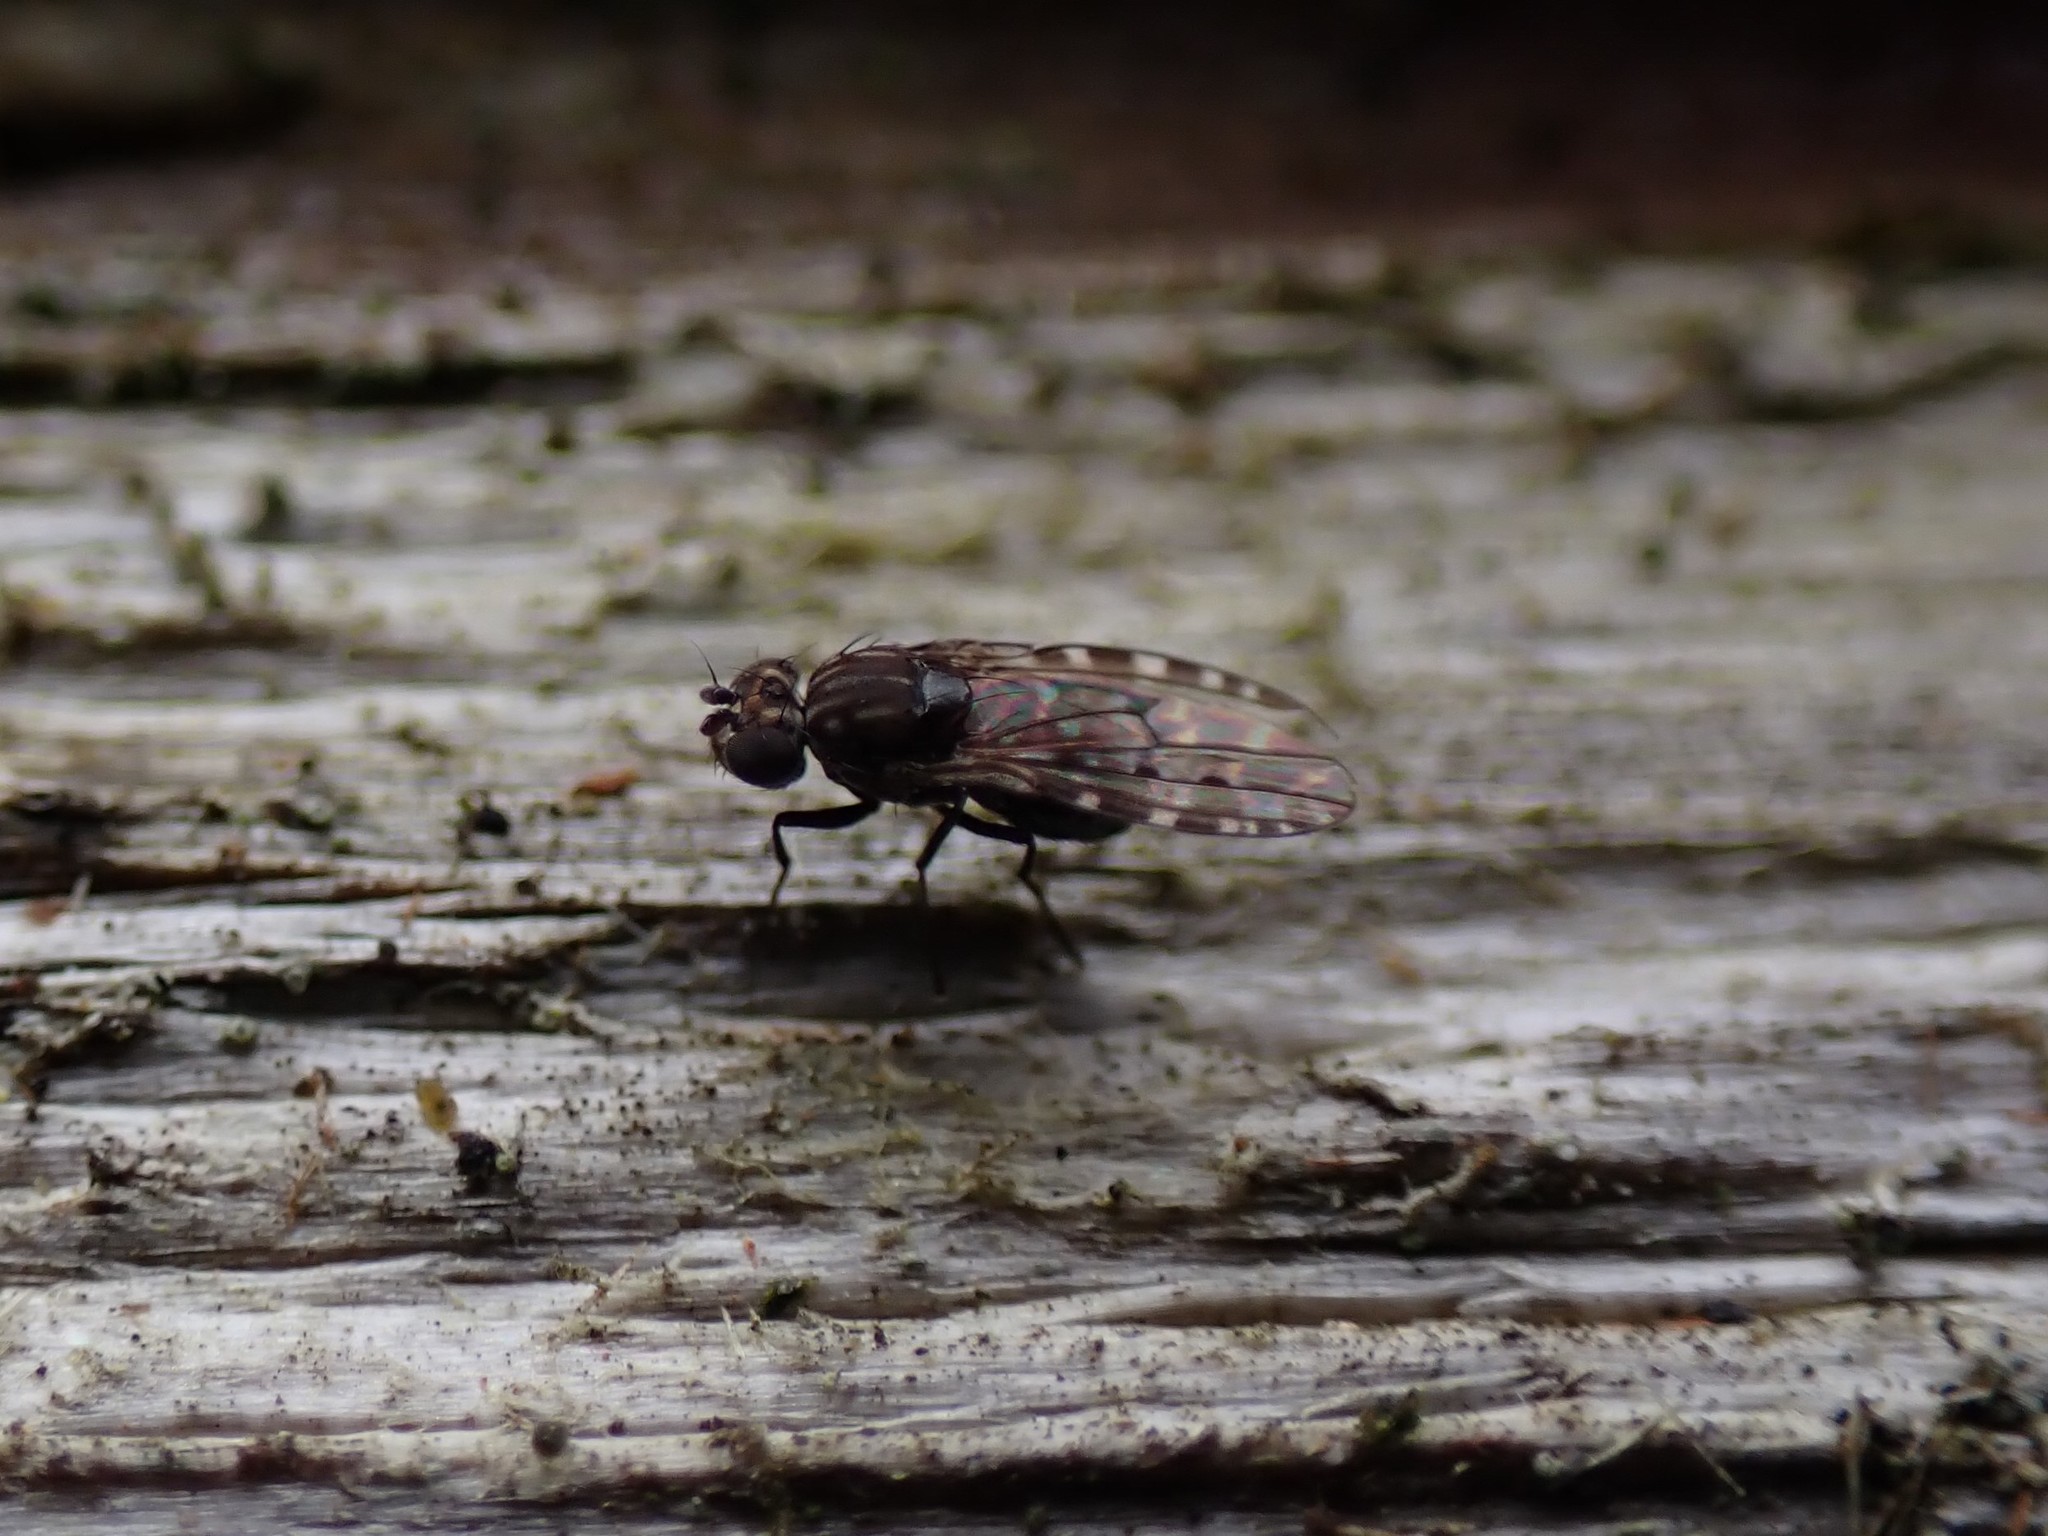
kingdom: Animalia
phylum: Arthropoda
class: Insecta
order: Diptera
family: Ephydridae
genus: Limnellia
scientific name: Limnellia turneri
